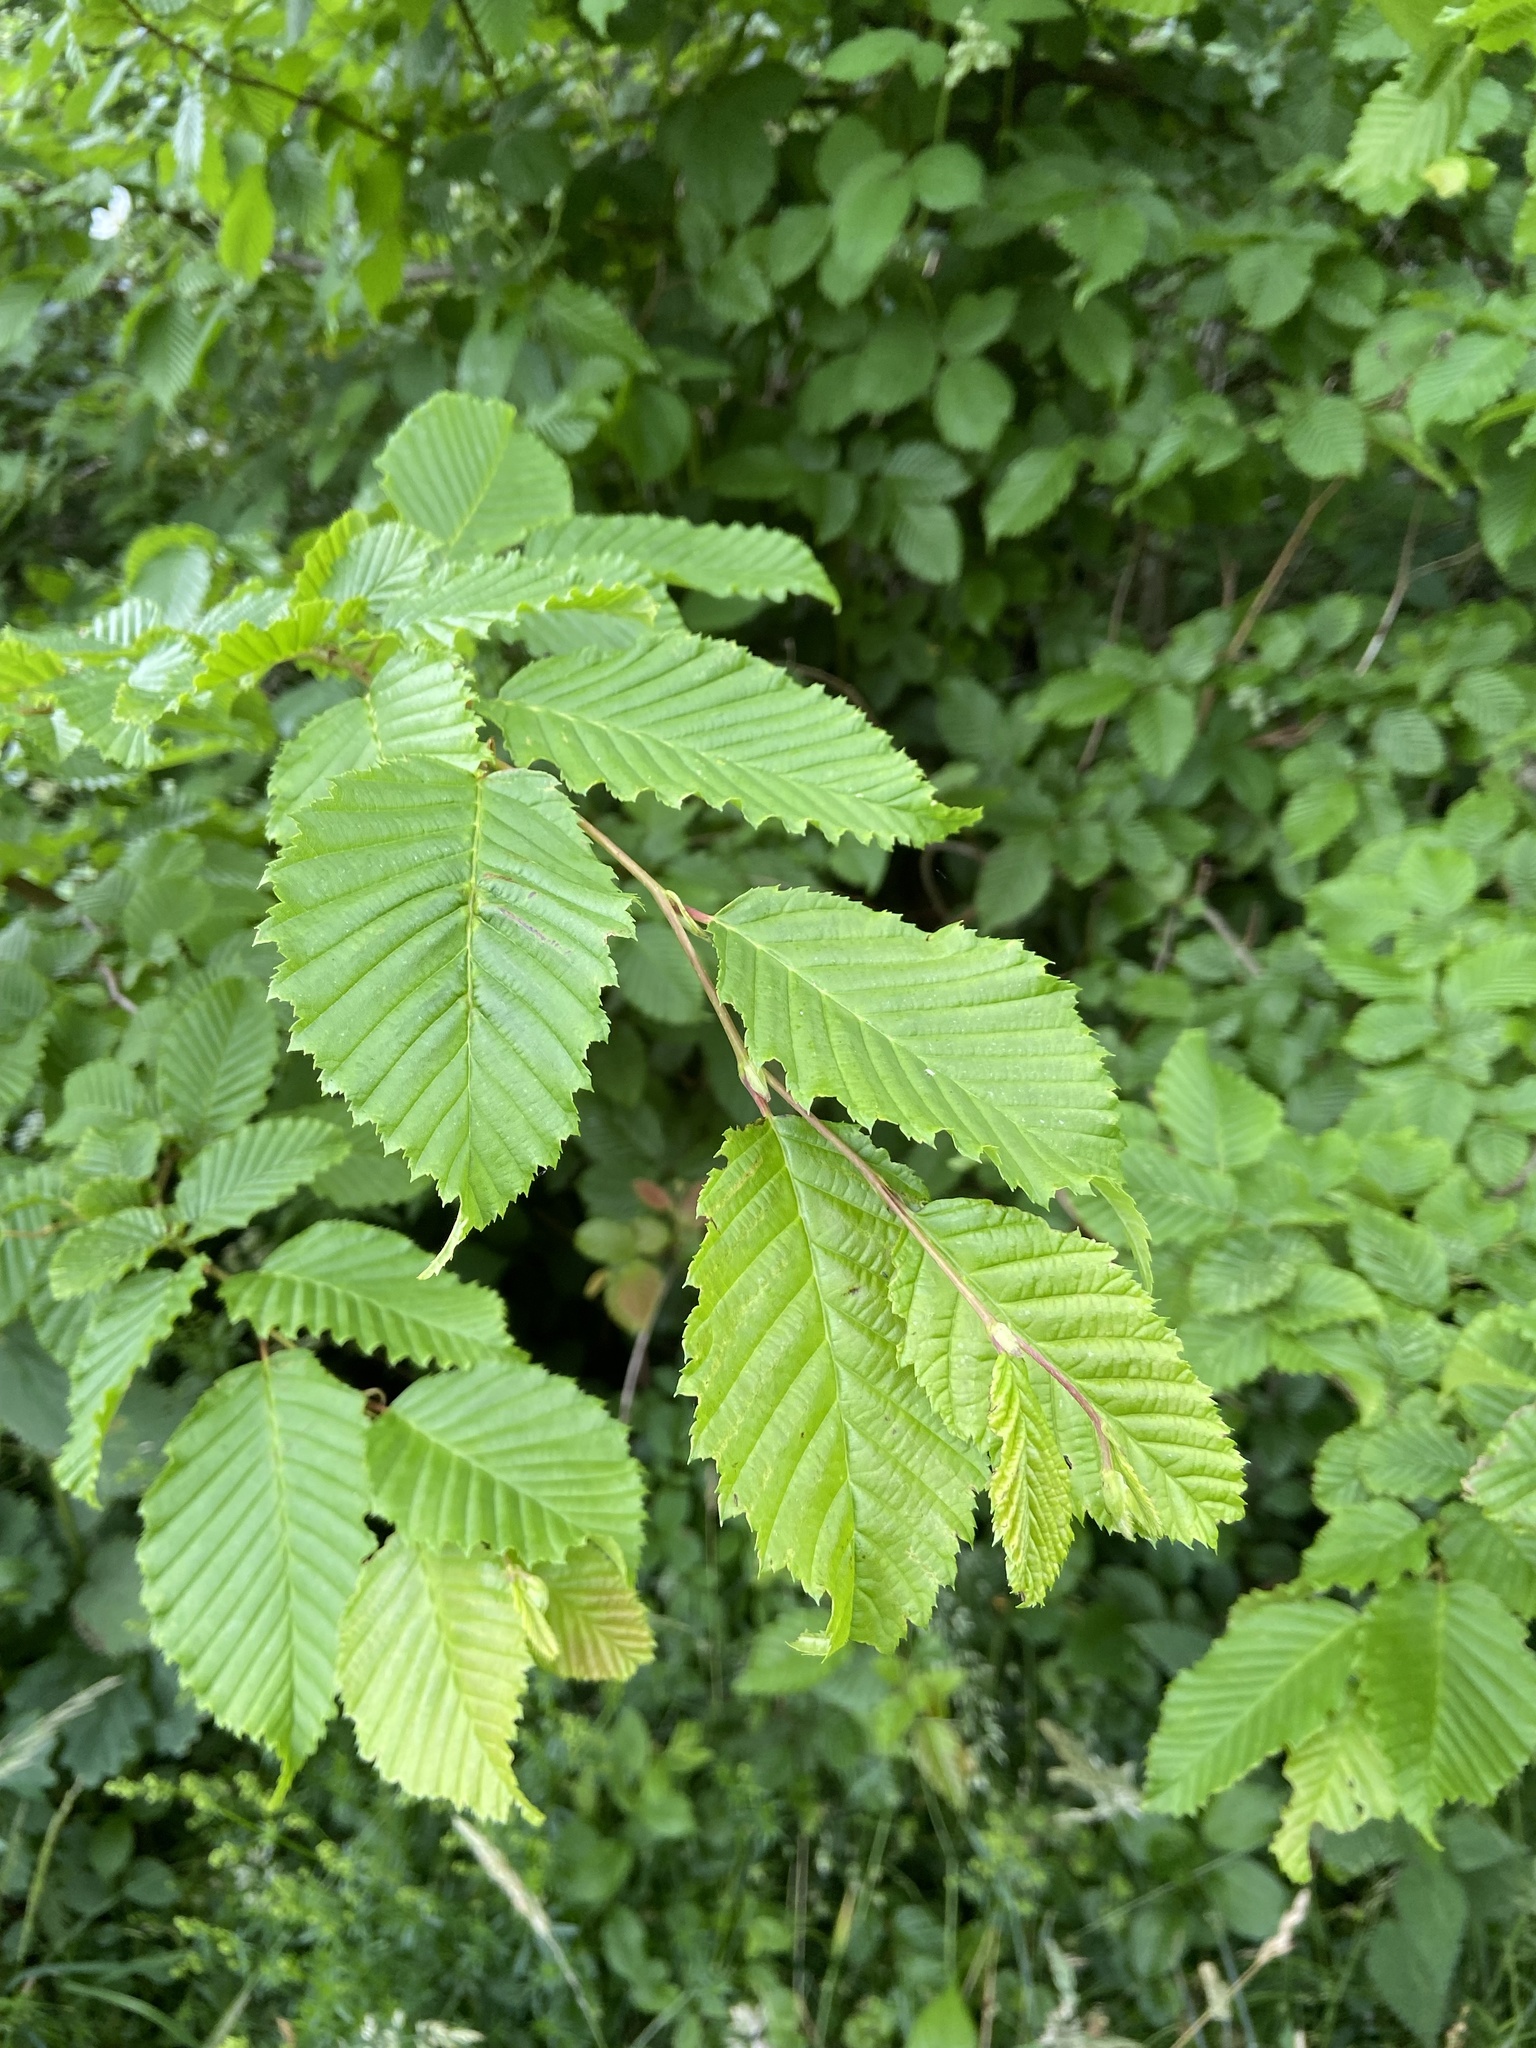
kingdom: Plantae
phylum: Tracheophyta
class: Magnoliopsida
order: Fagales
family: Betulaceae
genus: Carpinus
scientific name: Carpinus betulus
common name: Hornbeam
